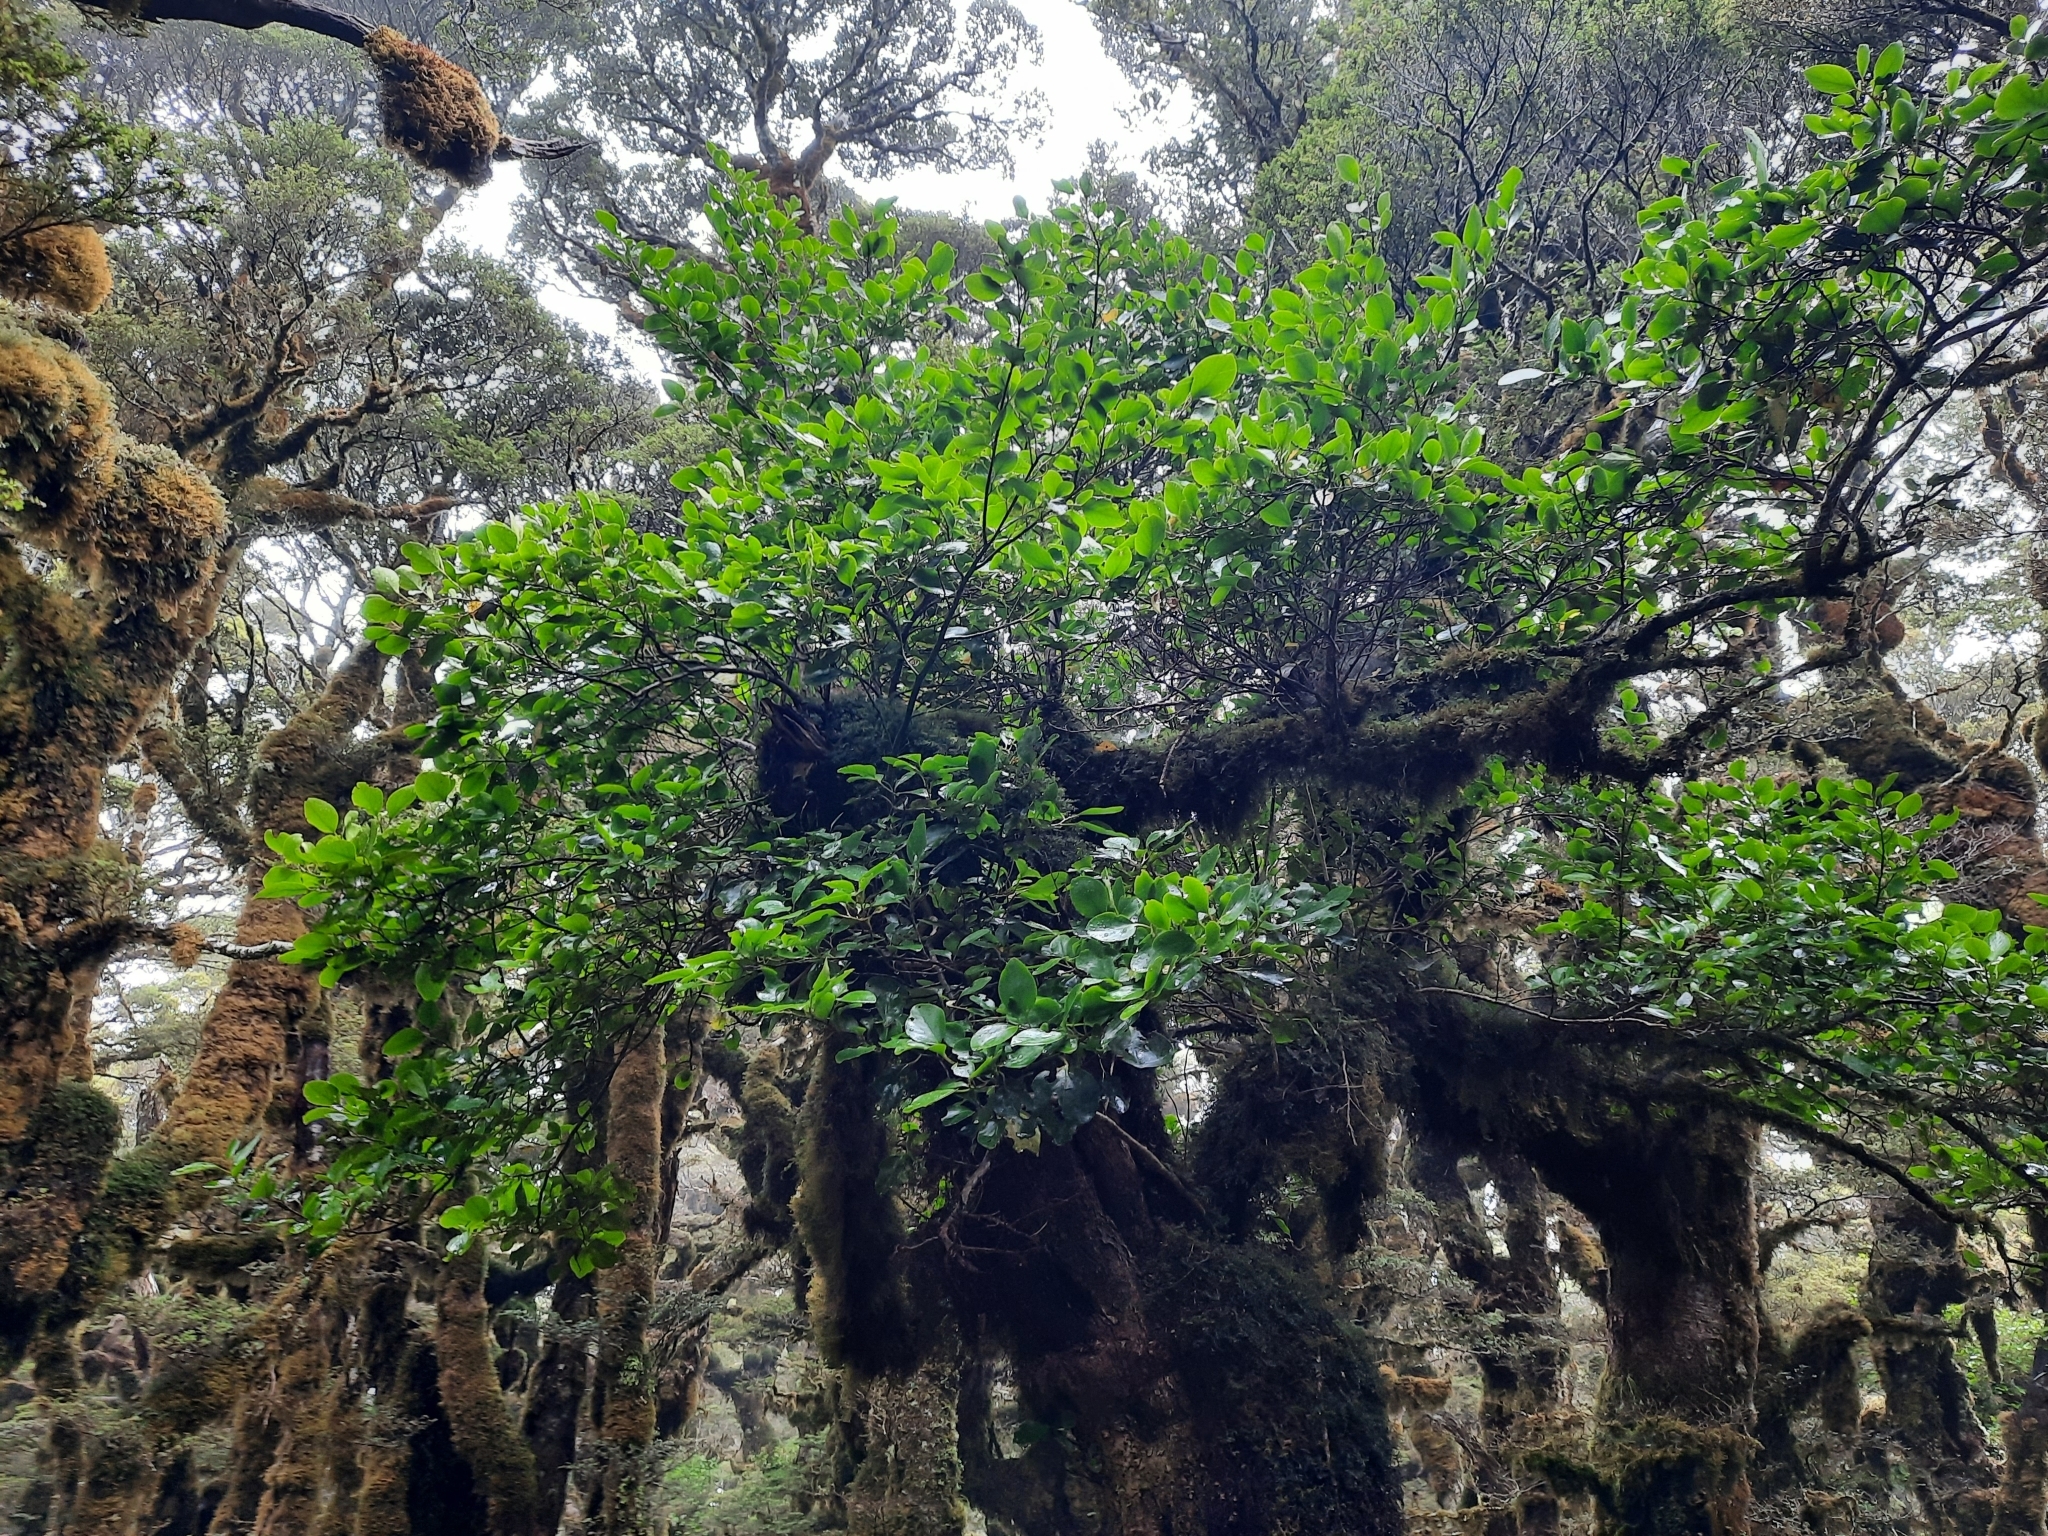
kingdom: Plantae
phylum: Tracheophyta
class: Magnoliopsida
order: Apiales
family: Griseliniaceae
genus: Griselinia
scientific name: Griselinia littoralis
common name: New zealand broadleaf
